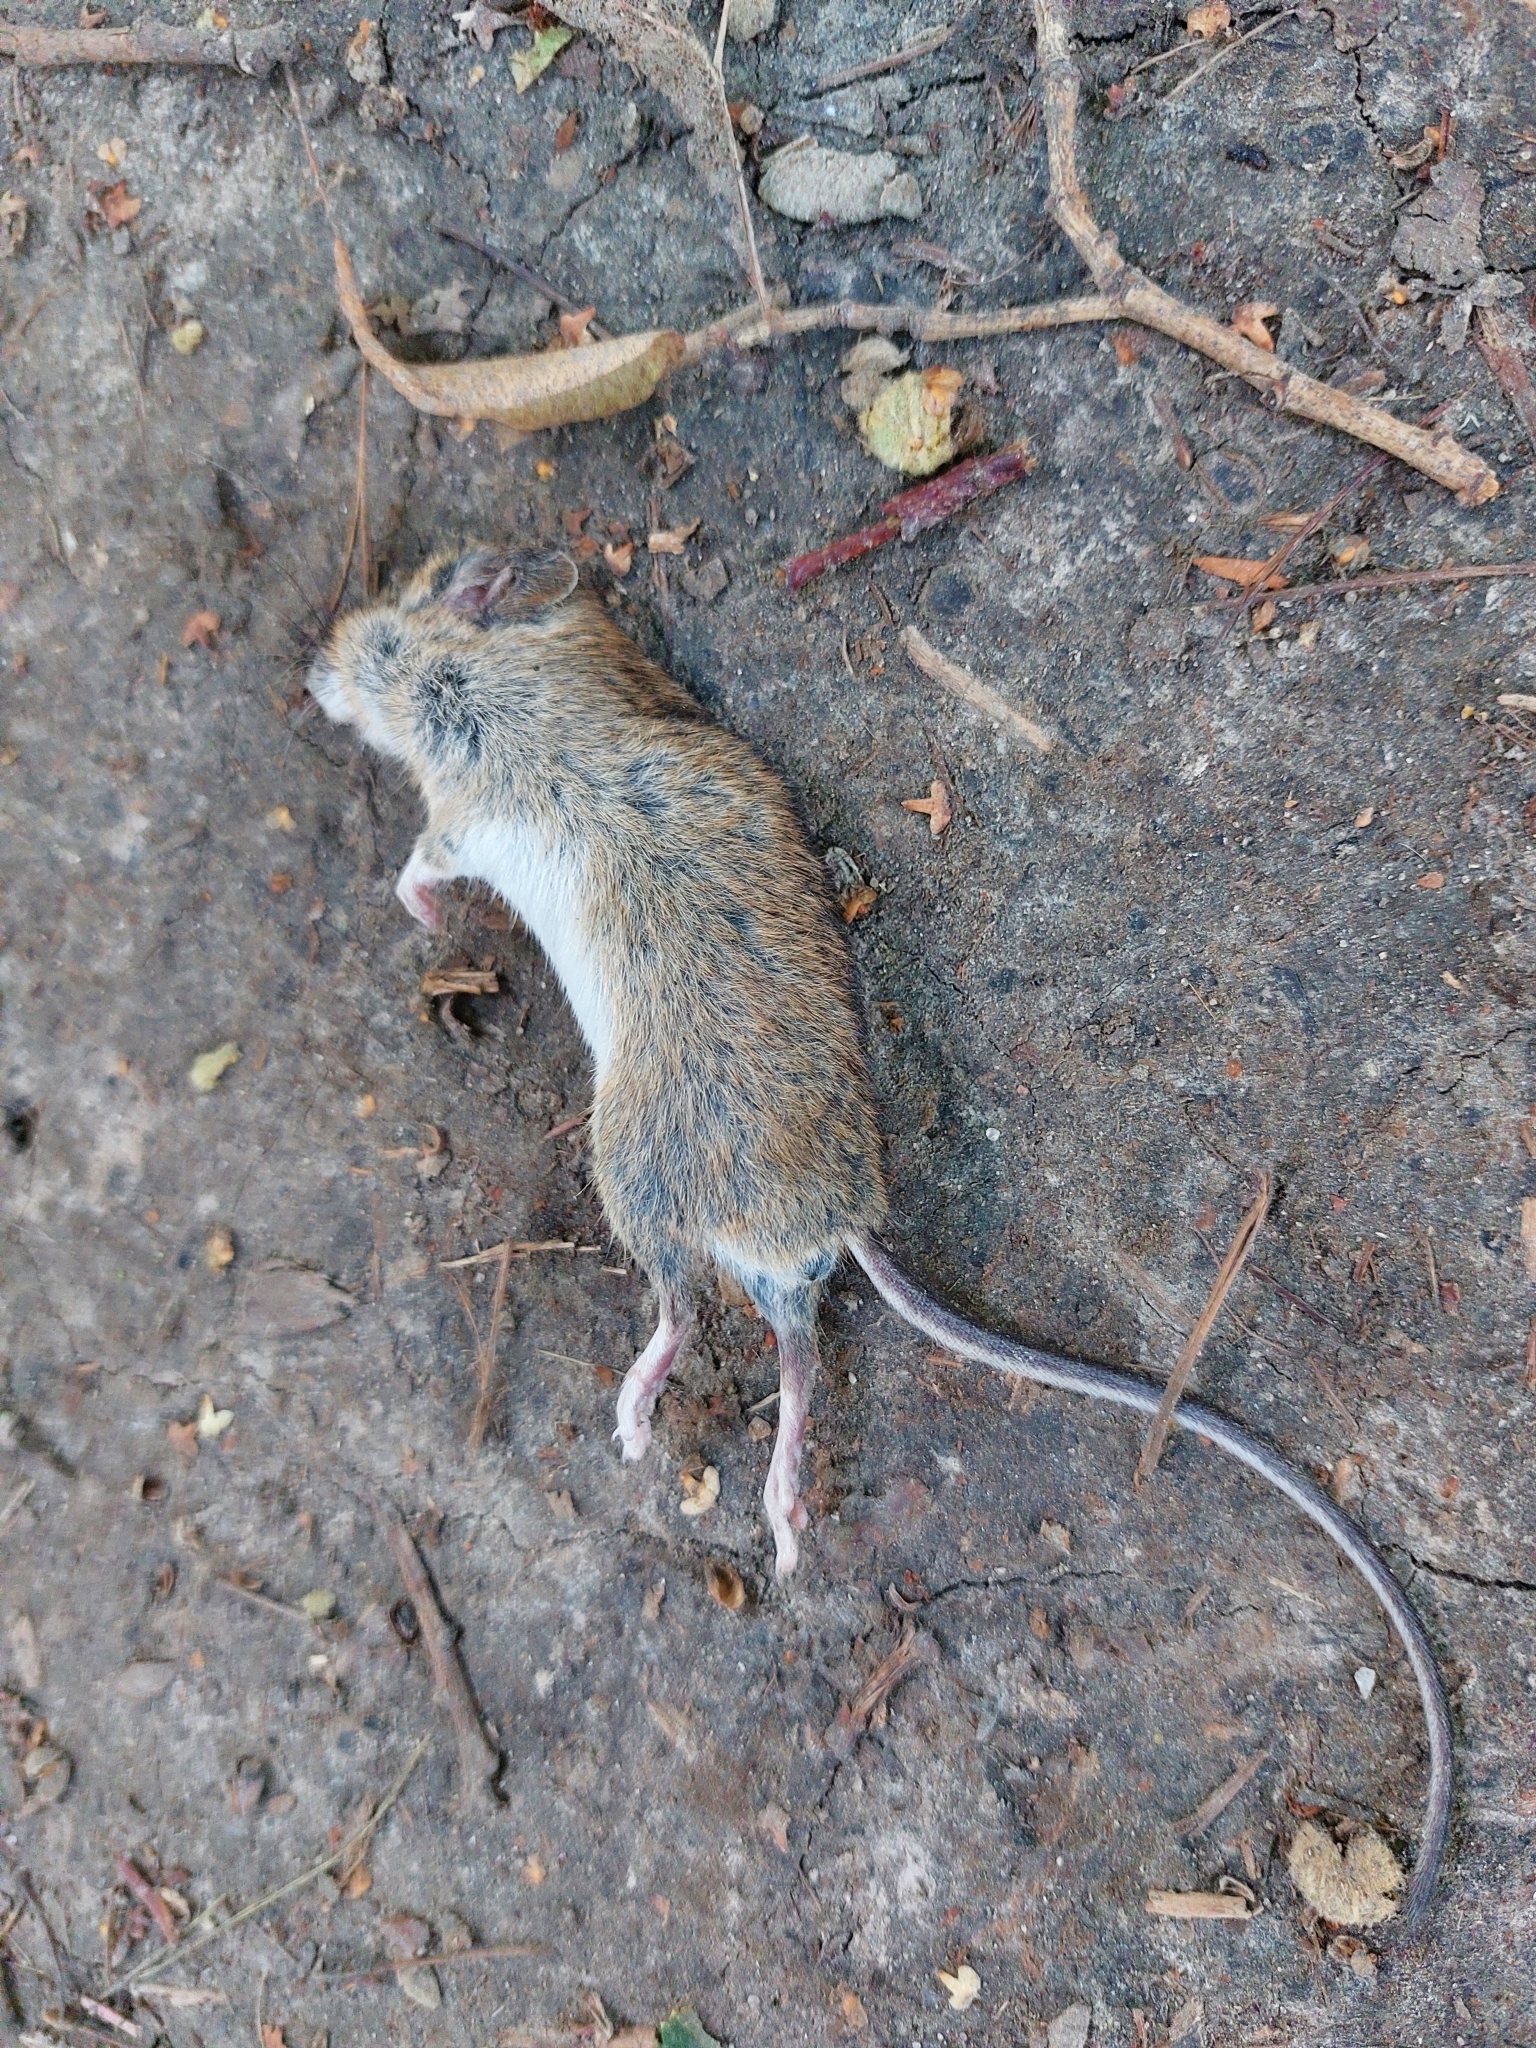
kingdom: Animalia
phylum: Chordata
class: Mammalia
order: Rodentia
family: Muridae
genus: Apodemus
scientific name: Apodemus agrarius
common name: Striped field mouse
